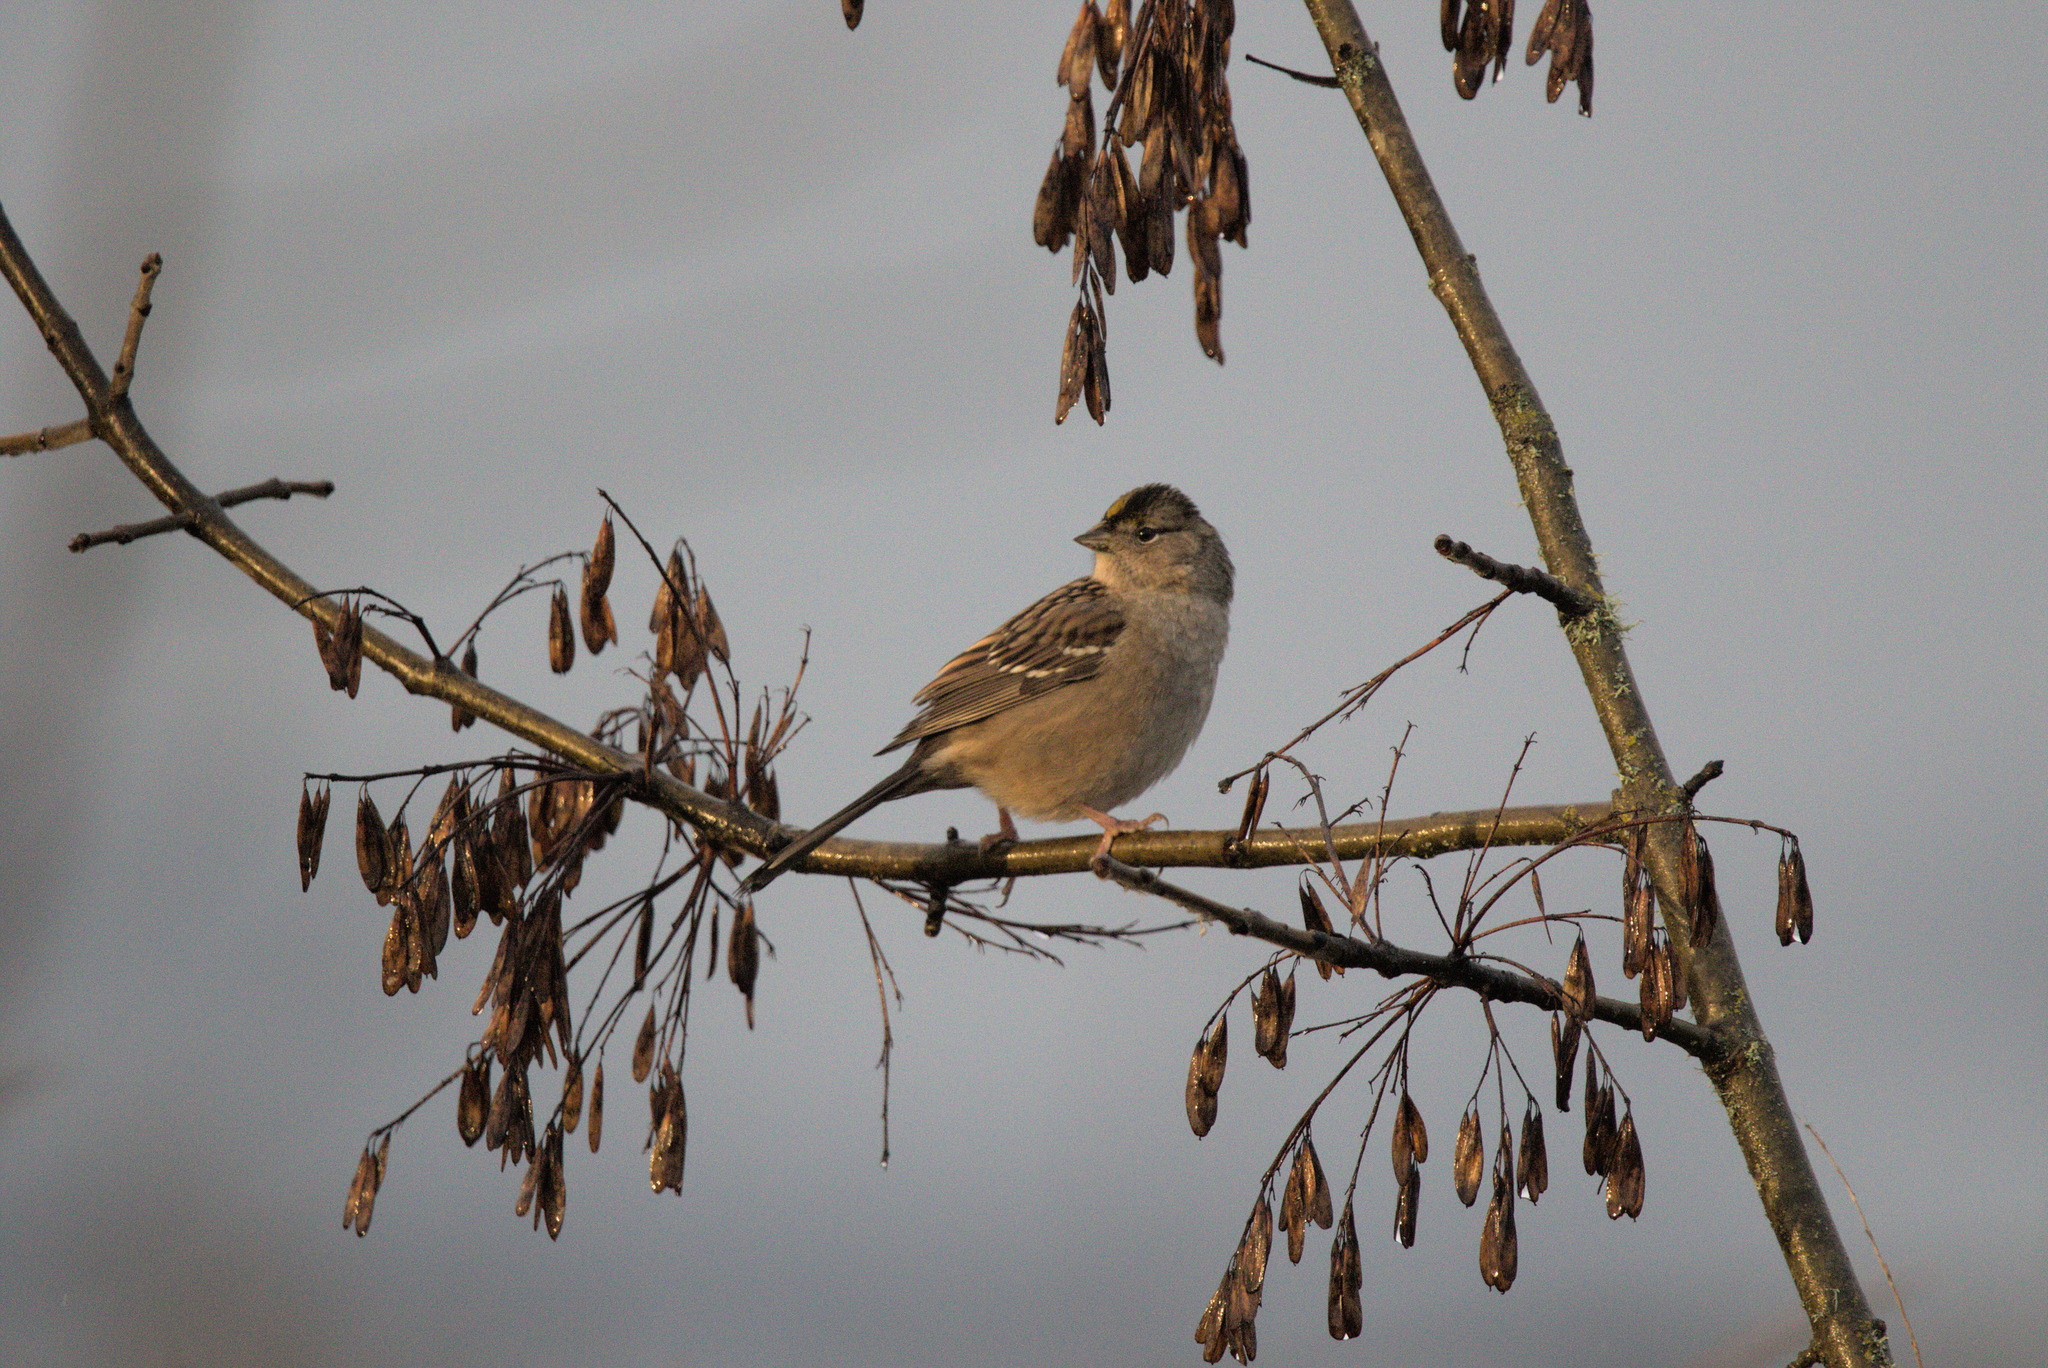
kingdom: Animalia
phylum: Chordata
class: Aves
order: Passeriformes
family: Passerellidae
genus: Zonotrichia
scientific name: Zonotrichia atricapilla
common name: Golden-crowned sparrow
